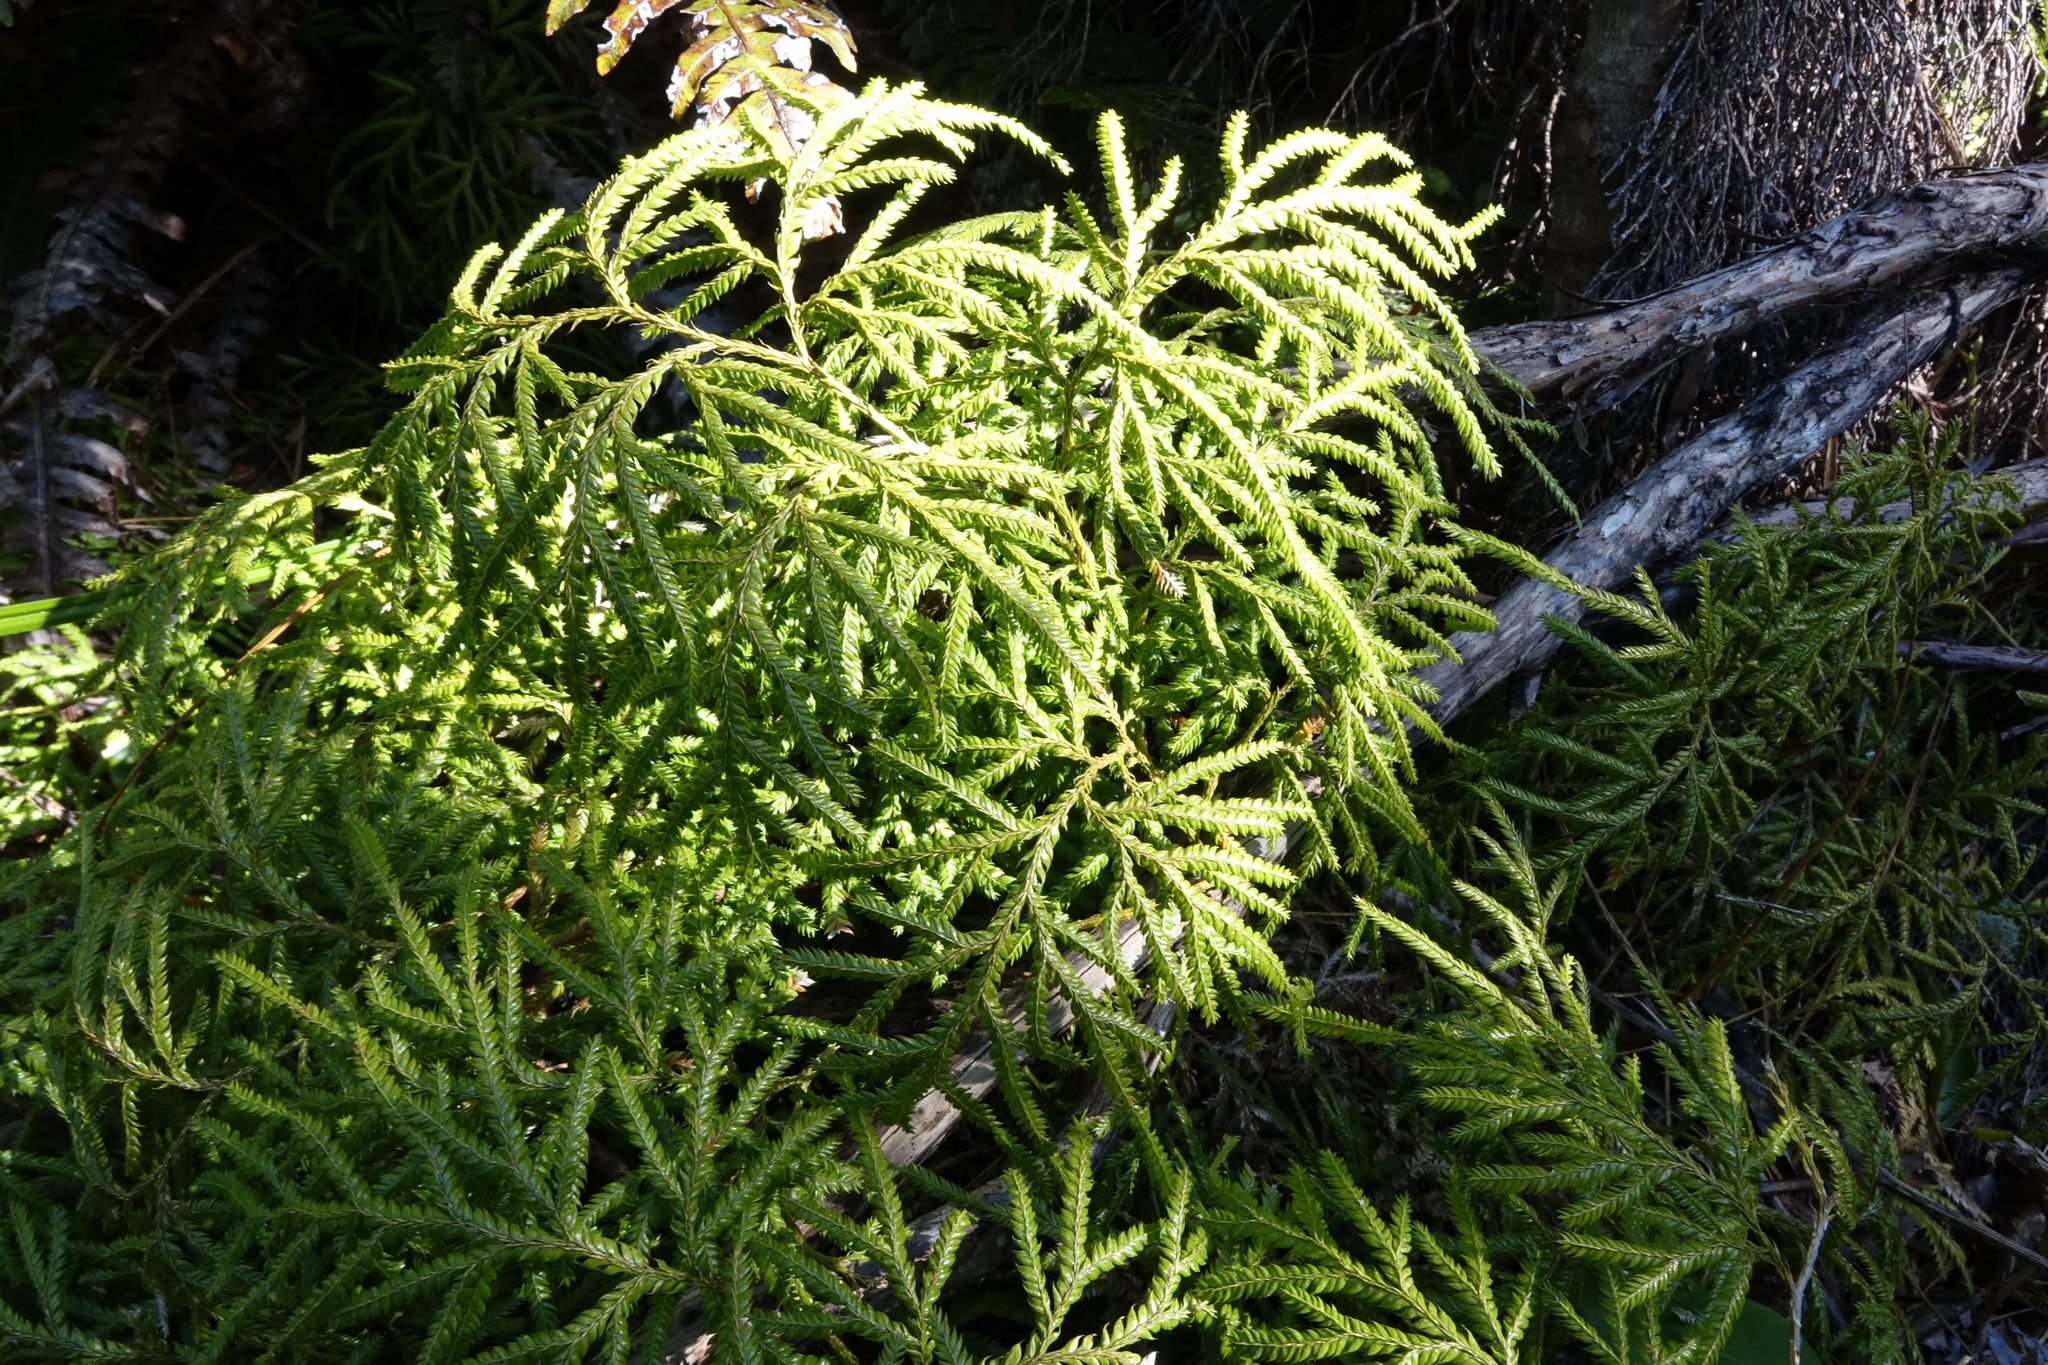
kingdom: Plantae
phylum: Tracheophyta
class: Lycopodiopsida
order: Lycopodiales
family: Lycopodiaceae
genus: Lycopodium
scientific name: Lycopodium volubile
